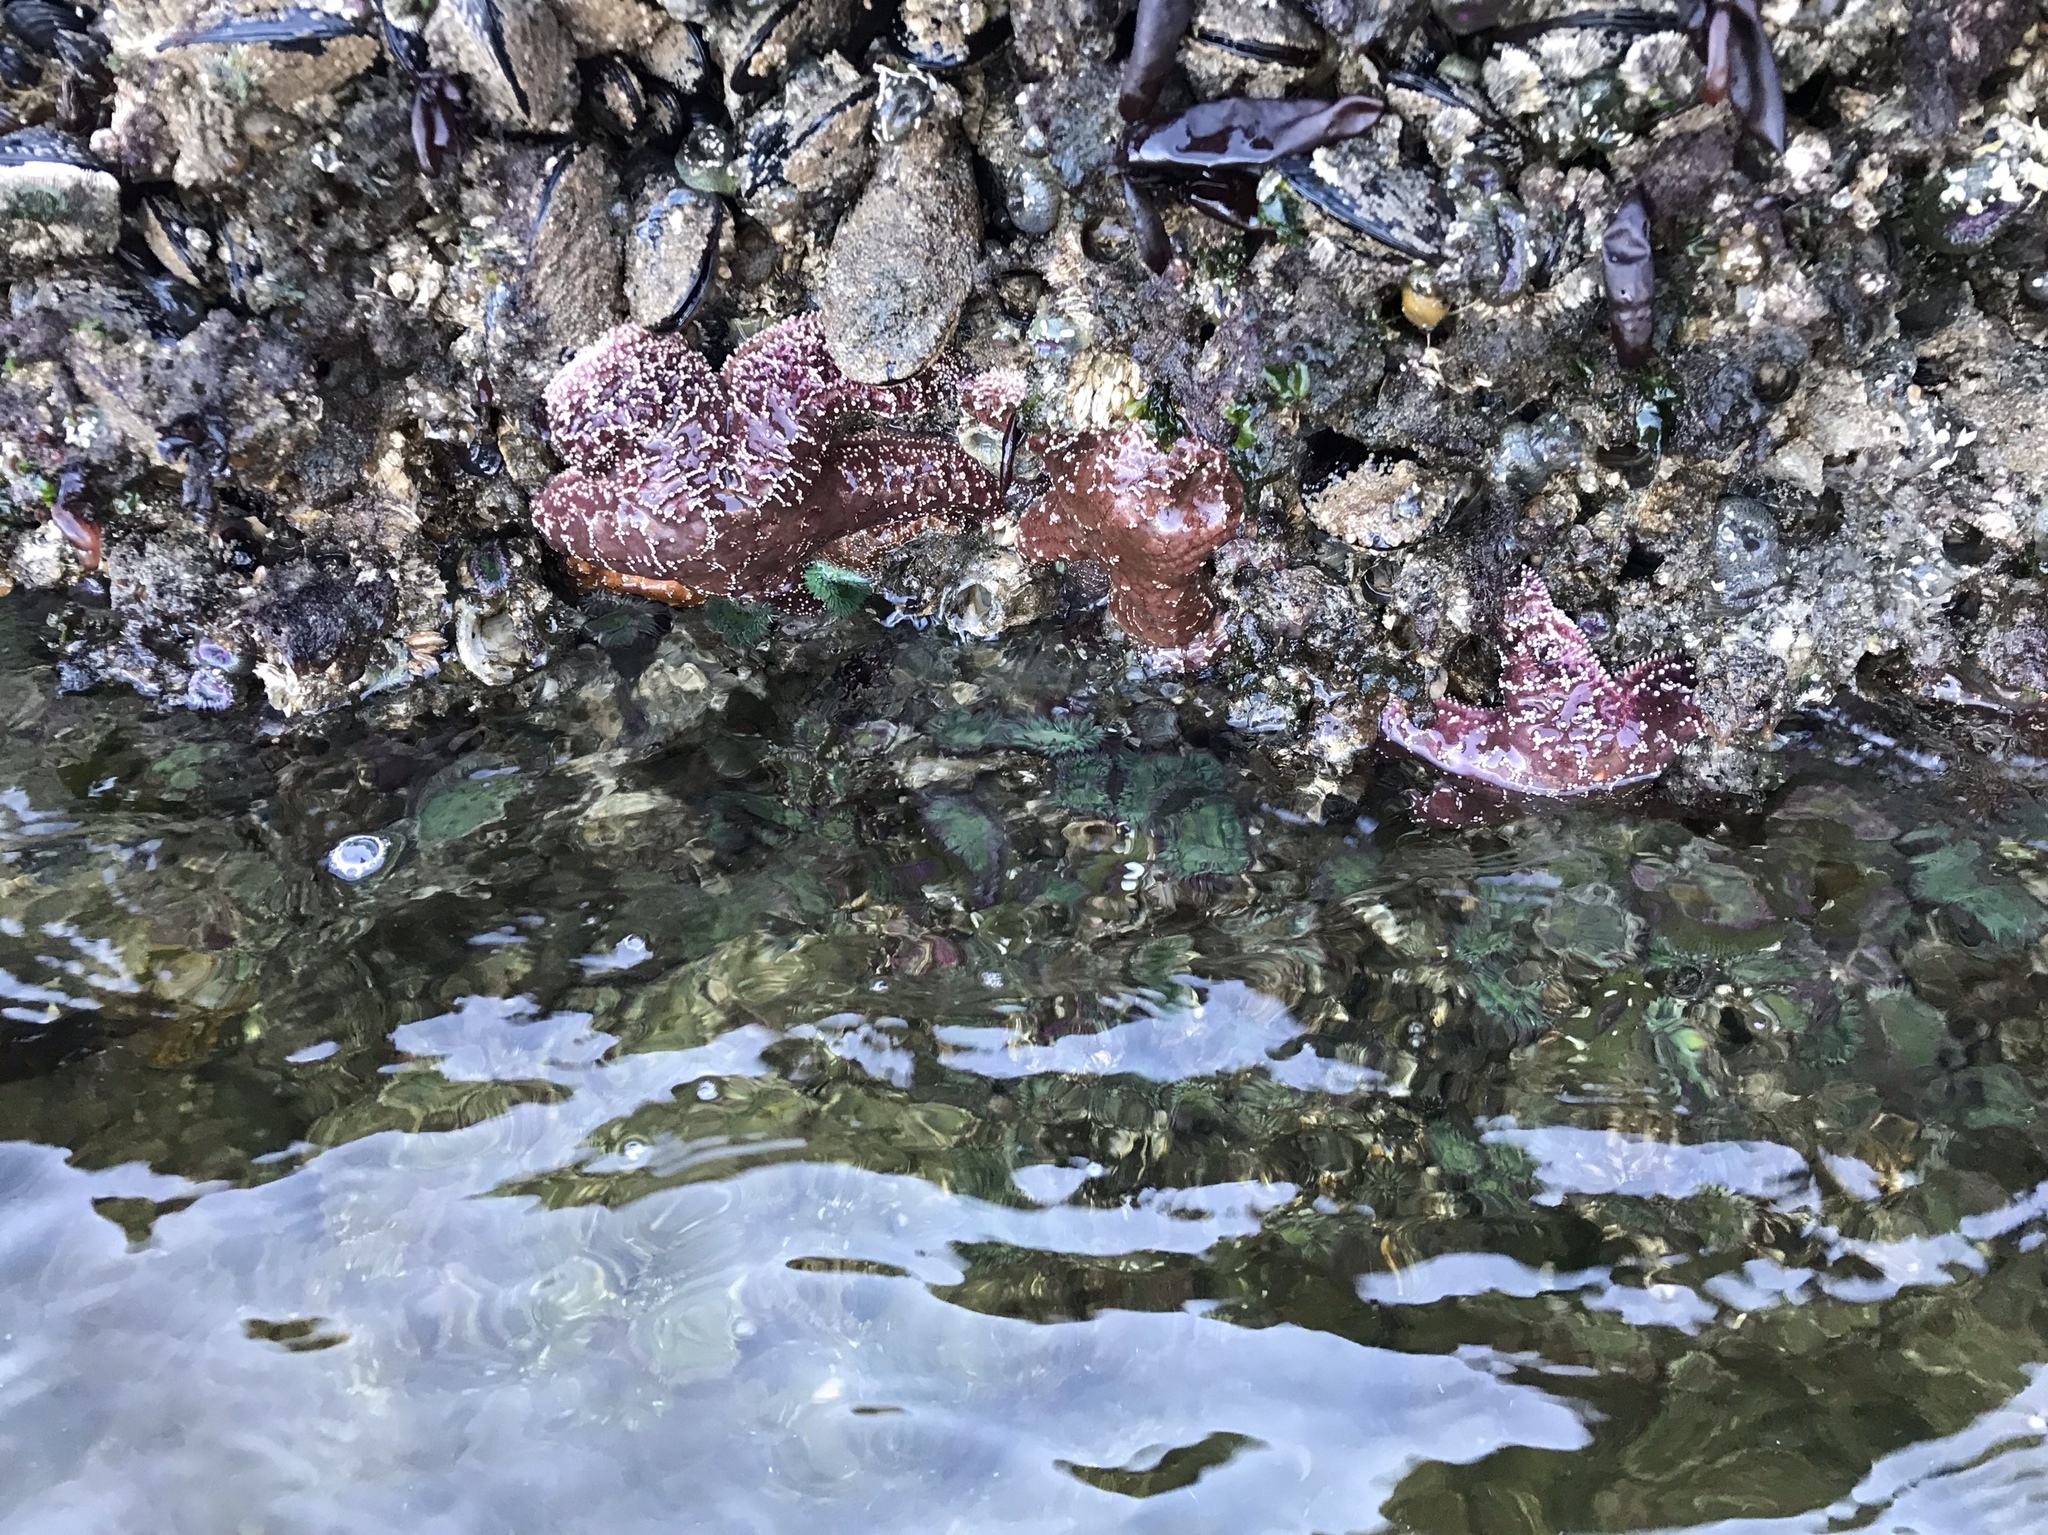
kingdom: Animalia
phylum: Echinodermata
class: Asteroidea
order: Forcipulatida
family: Asteriidae
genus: Pisaster
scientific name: Pisaster ochraceus
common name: Ochre stars
